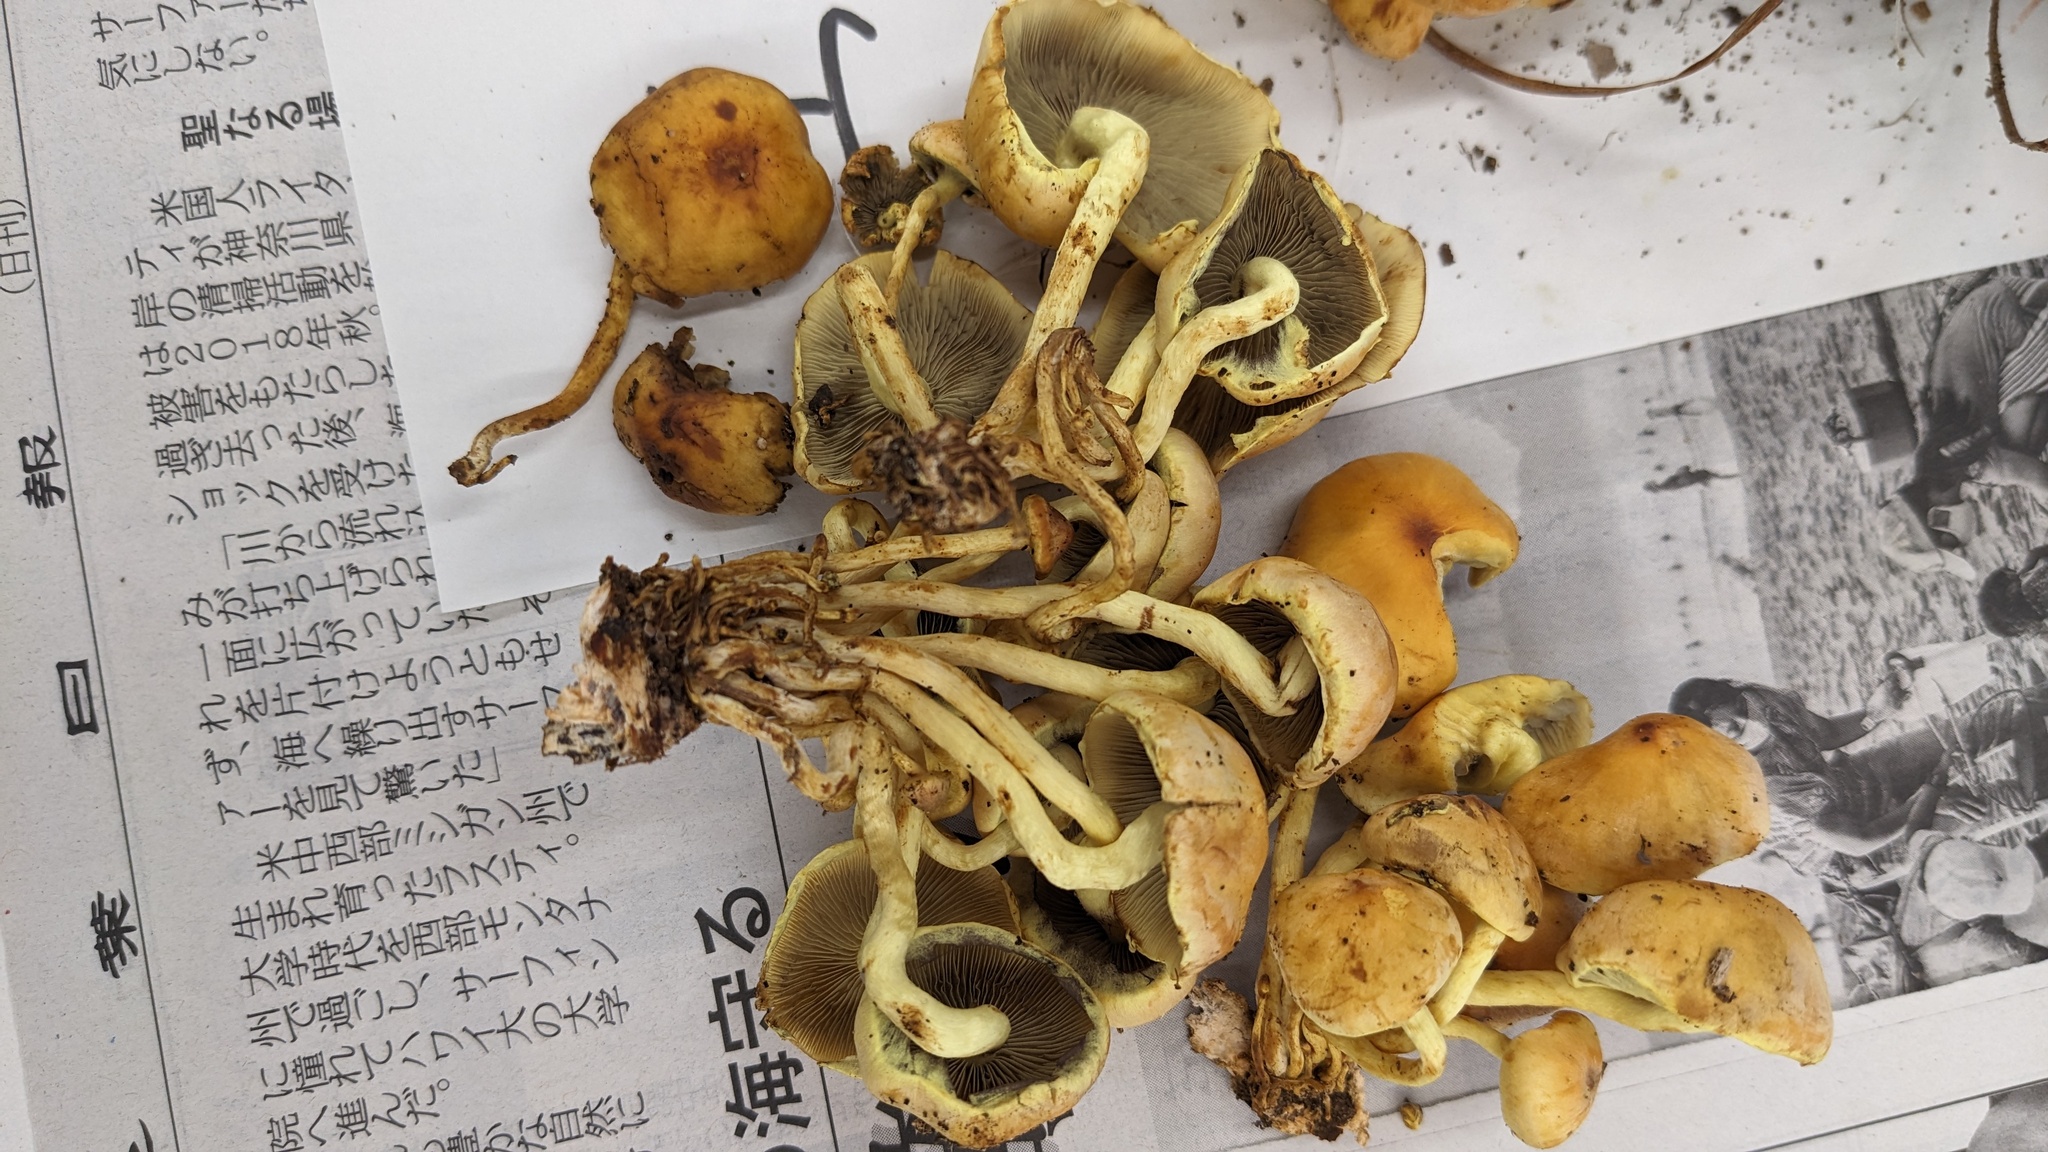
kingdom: Fungi
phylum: Basidiomycota
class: Agaricomycetes
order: Agaricales
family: Strophariaceae
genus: Hypholoma
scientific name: Hypholoma fasciculare
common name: Sulphur tuft
